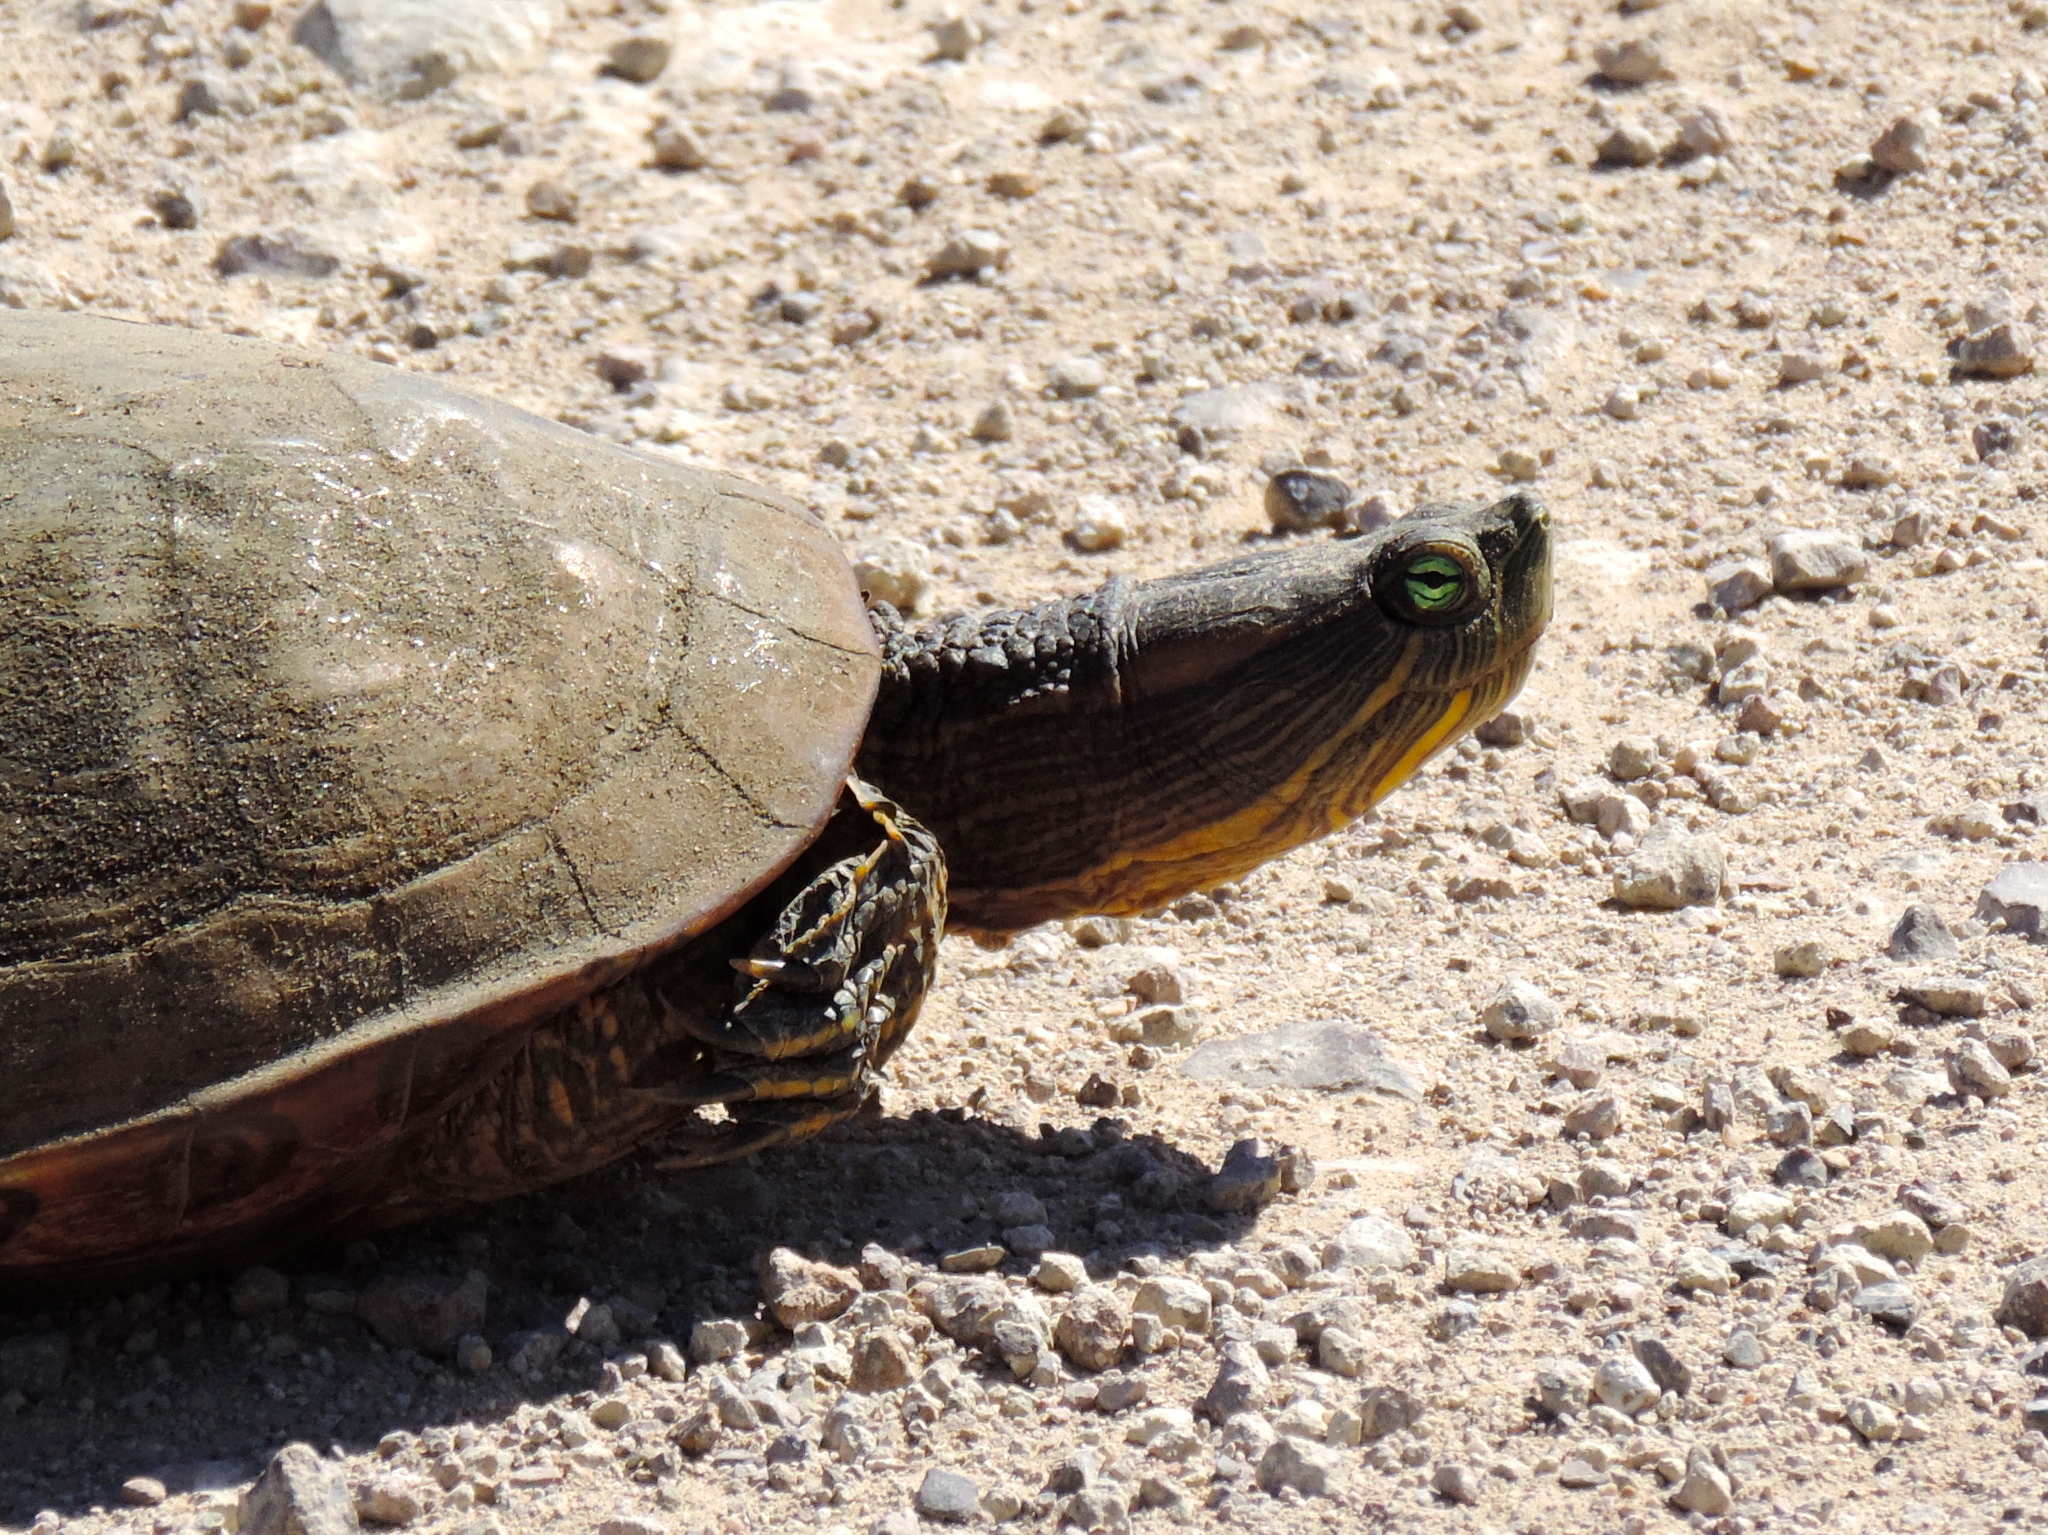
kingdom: Animalia
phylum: Chordata
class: Testudines
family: Emydidae
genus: Trachemys
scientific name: Trachemys ornata
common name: Ornate slider
